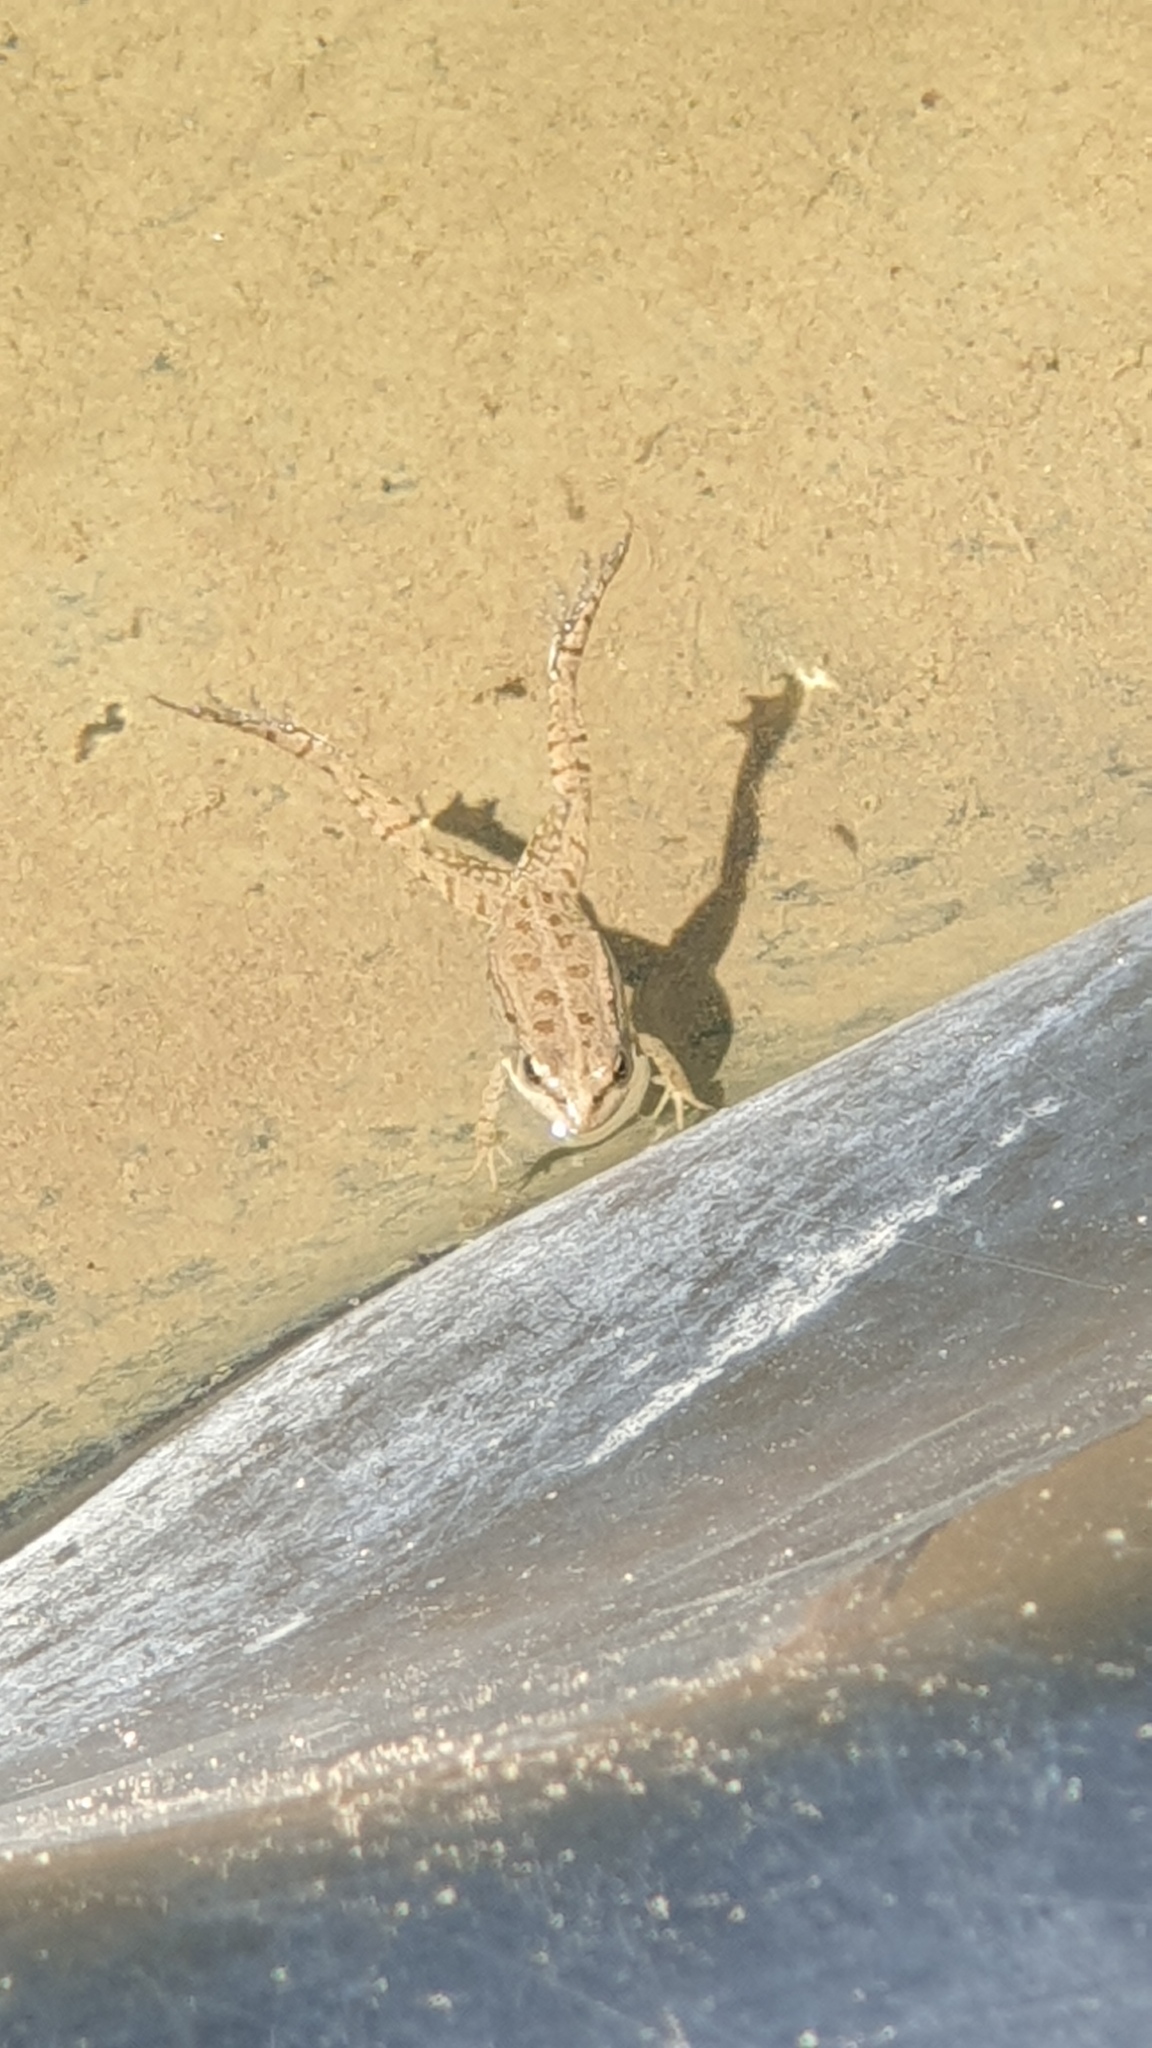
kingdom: Animalia
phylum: Chordata
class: Amphibia
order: Anura
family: Ranidae
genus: Pelophylax
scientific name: Pelophylax ridibundus
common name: Marsh frog
